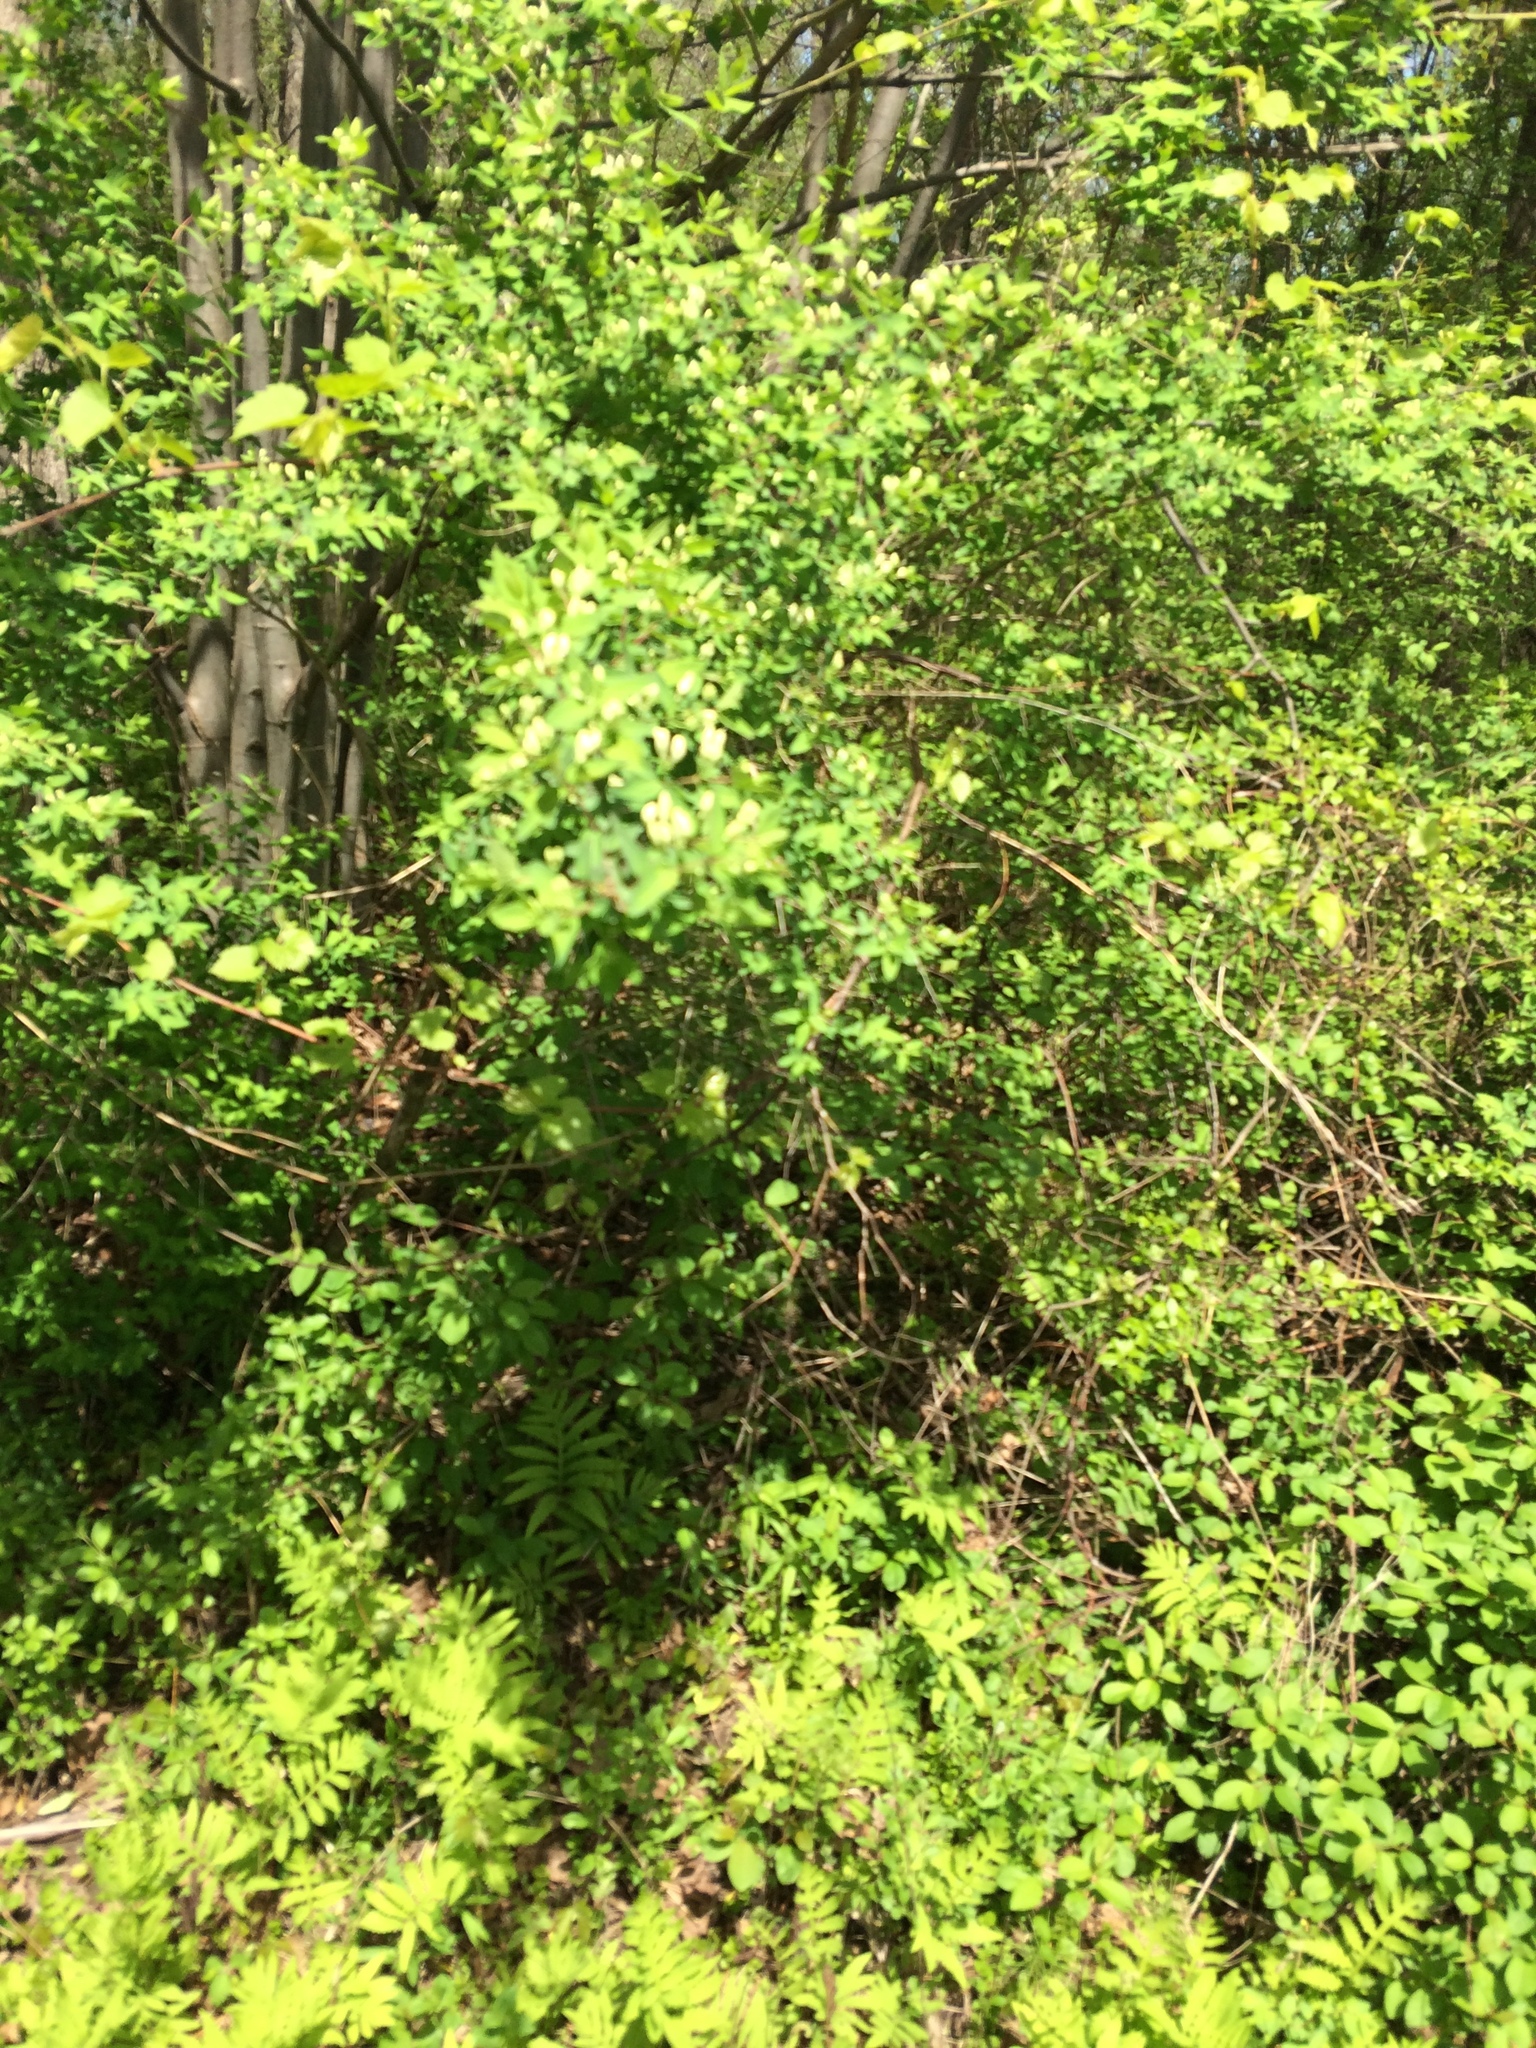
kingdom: Plantae
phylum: Tracheophyta
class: Magnoliopsida
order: Dipsacales
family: Caprifoliaceae
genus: Lonicera
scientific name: Lonicera
